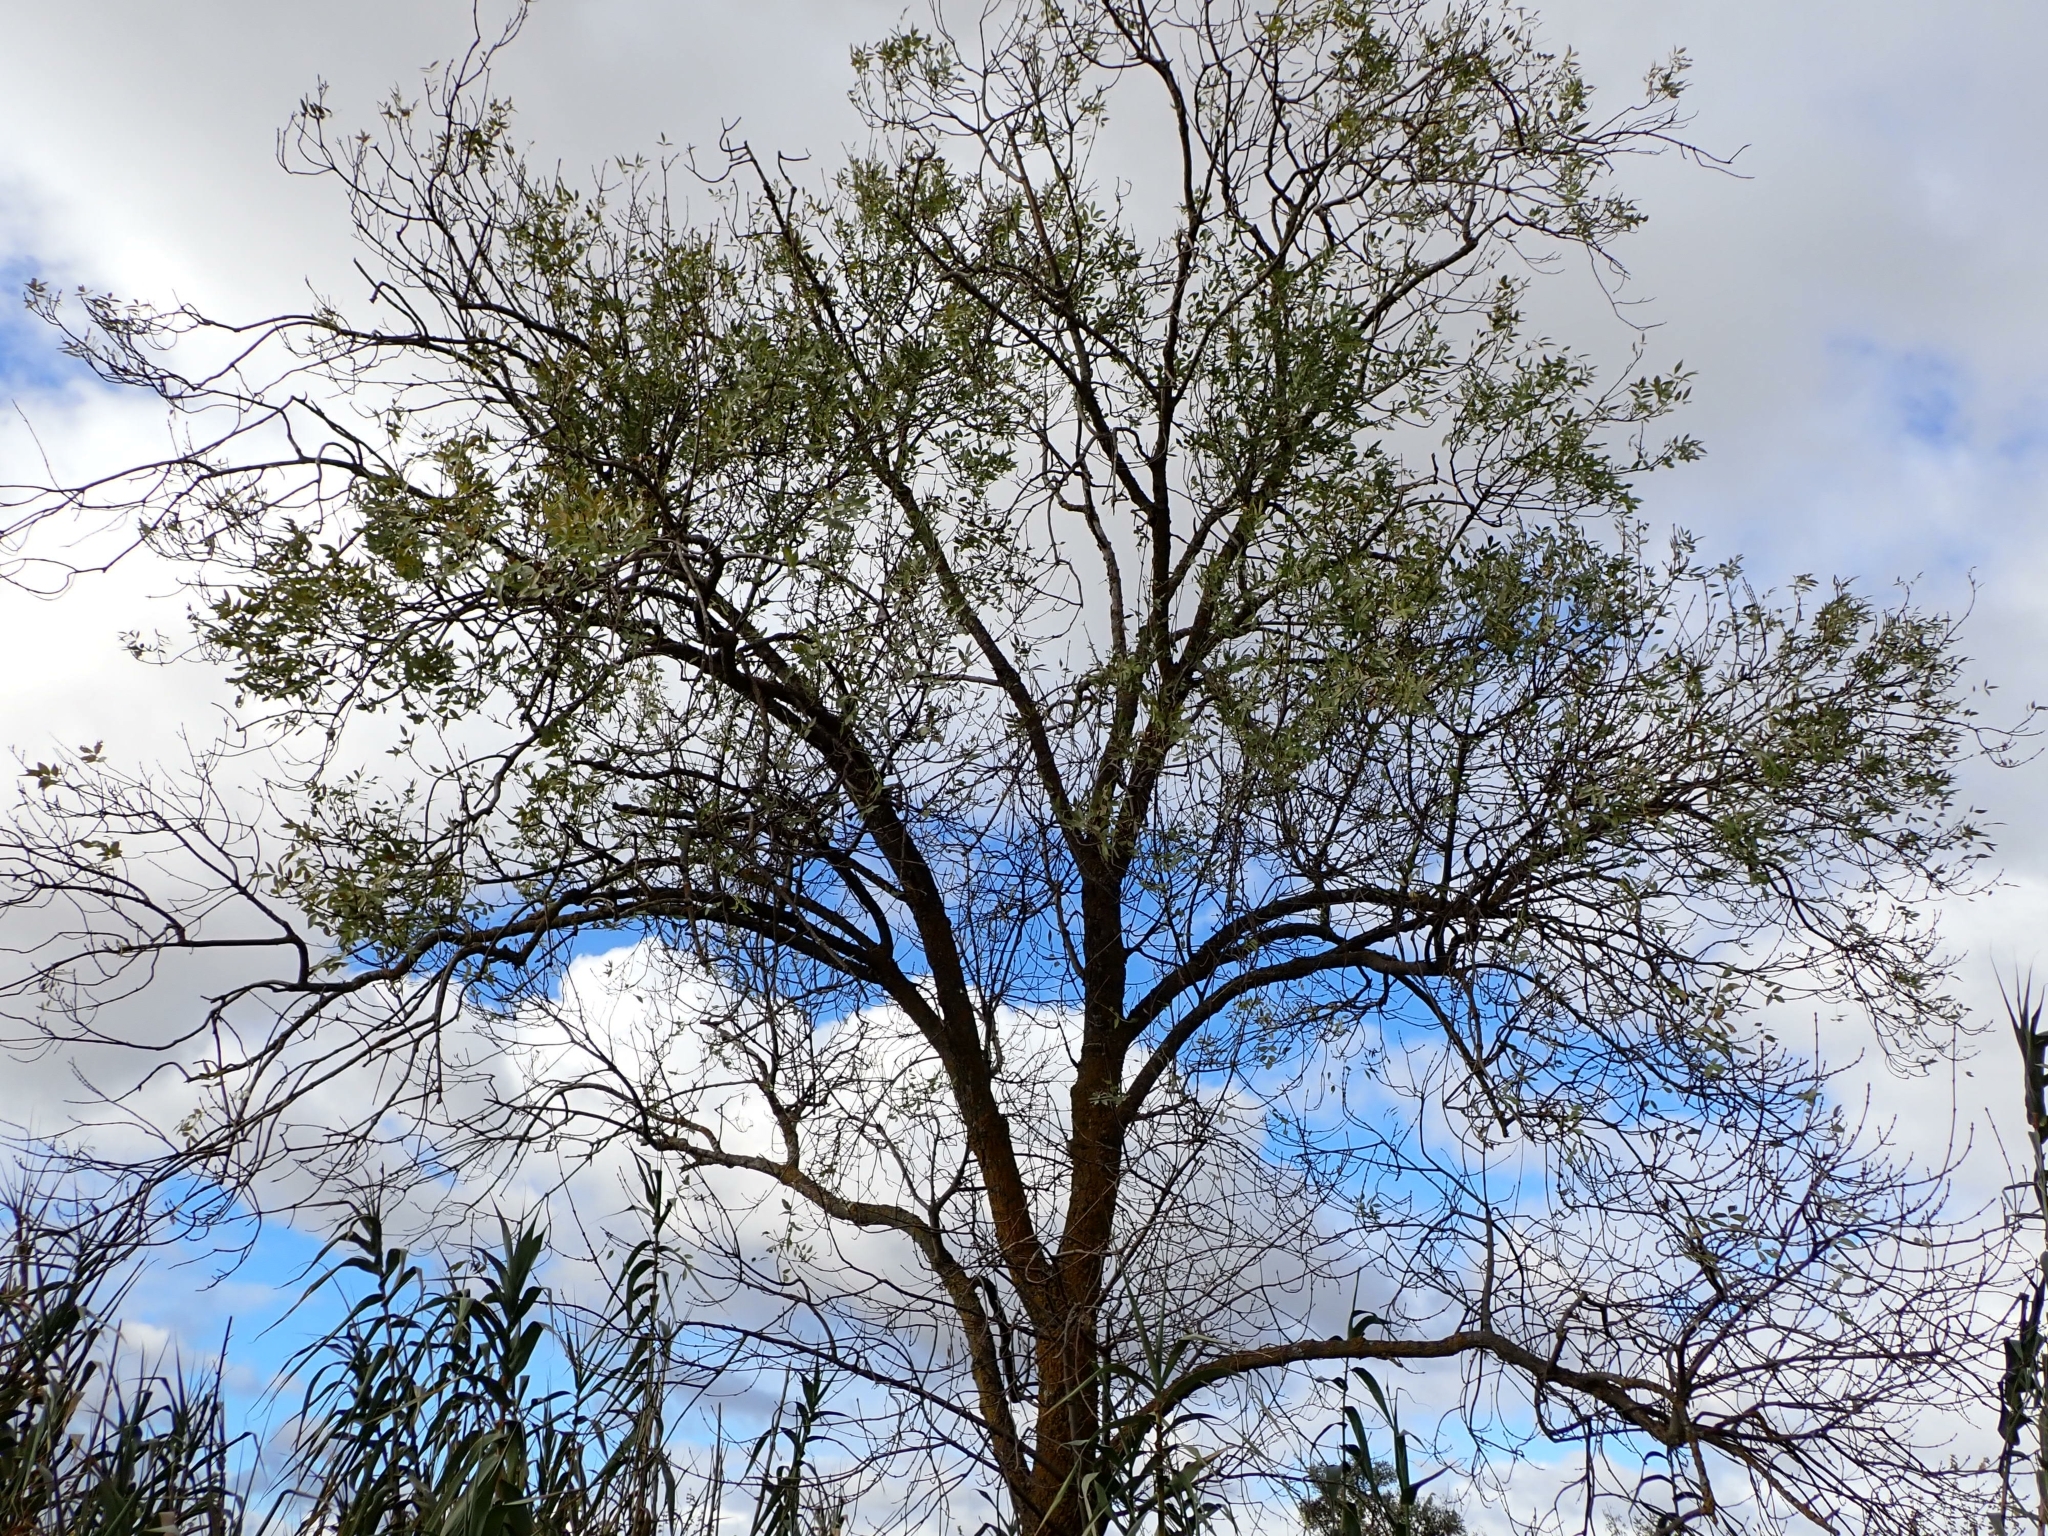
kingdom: Plantae
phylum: Tracheophyta
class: Magnoliopsida
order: Lamiales
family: Oleaceae
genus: Fraxinus
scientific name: Fraxinus angustifolia
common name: Narrow-leafed ash
